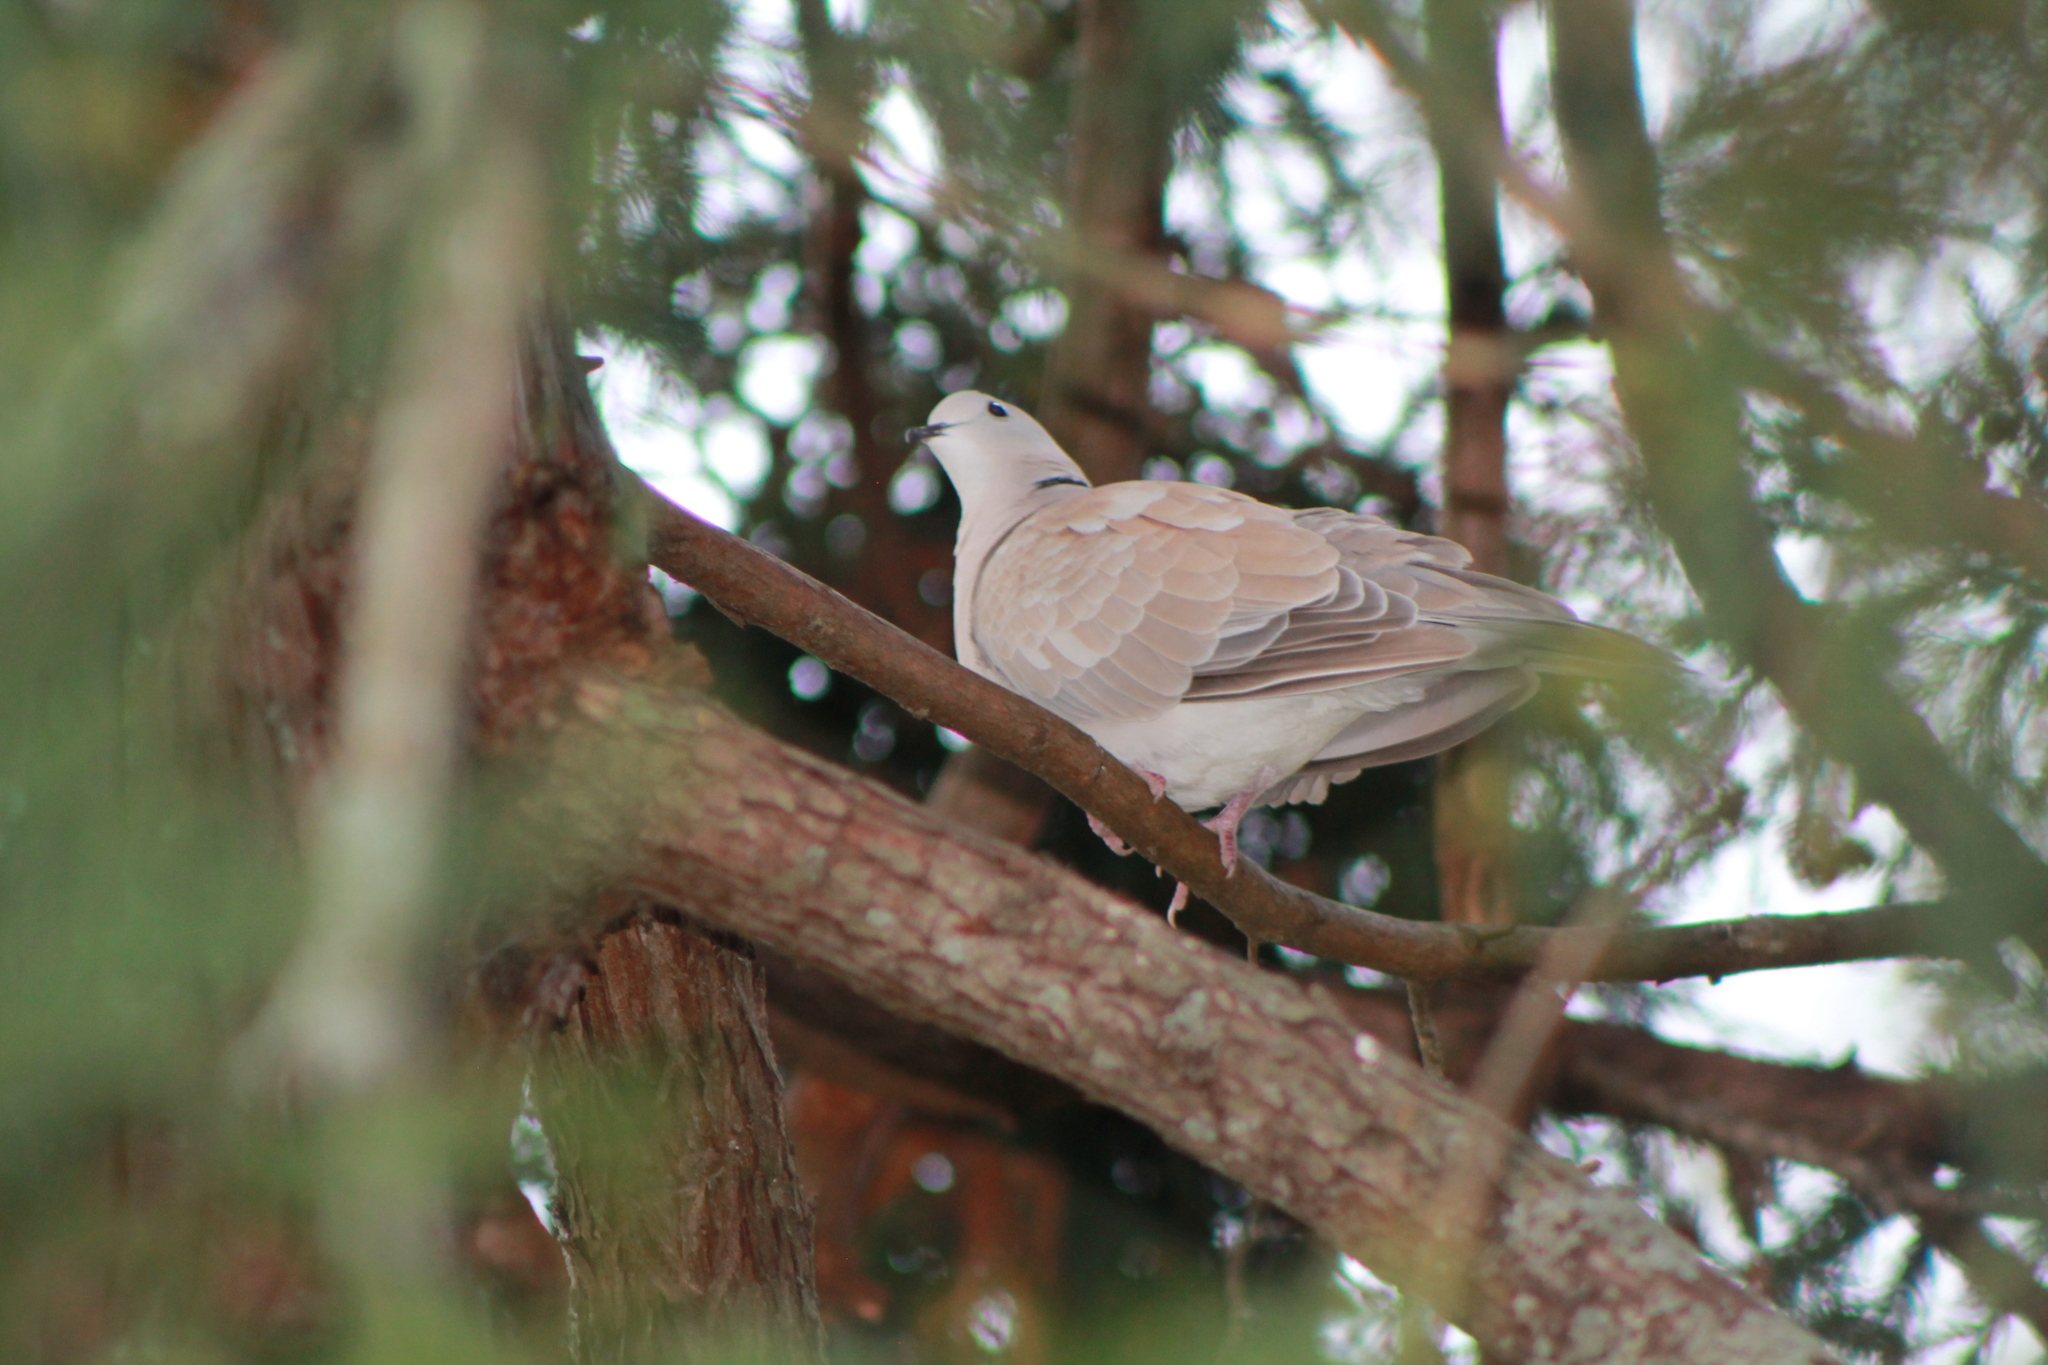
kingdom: Animalia
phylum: Chordata
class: Aves
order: Columbiformes
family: Columbidae
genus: Streptopelia
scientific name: Streptopelia roseogrisea
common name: African collared dove
